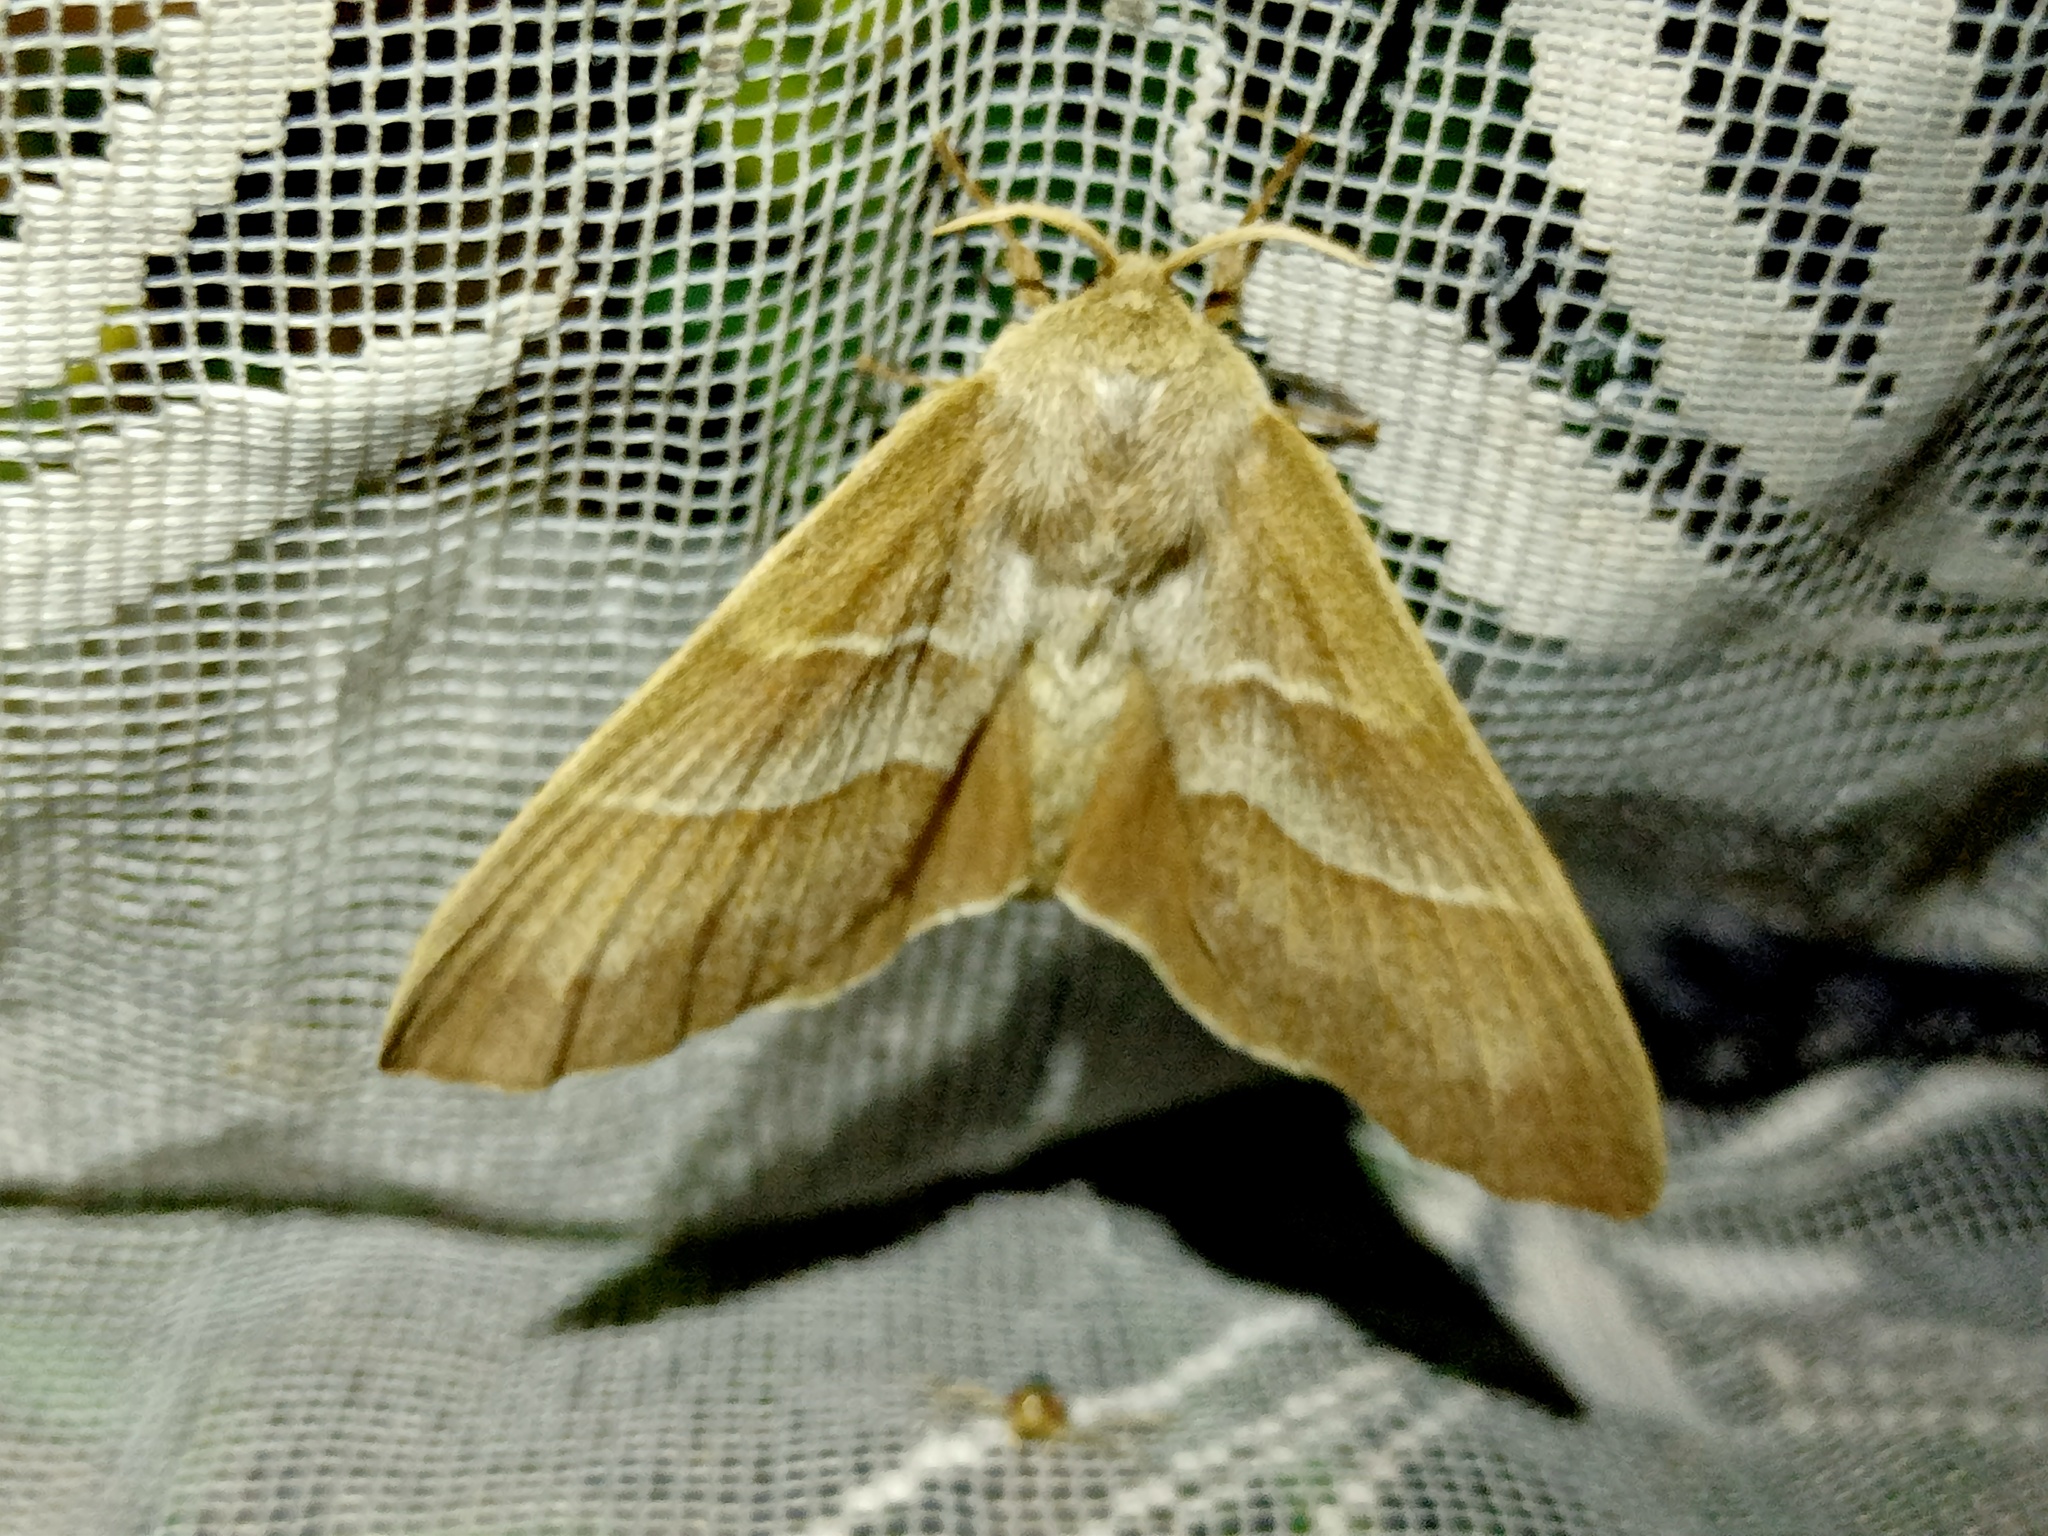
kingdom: Animalia
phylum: Arthropoda
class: Insecta
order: Lepidoptera
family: Lasiocampidae
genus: Macrothylacia
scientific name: Macrothylacia rubi
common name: Fox moth
